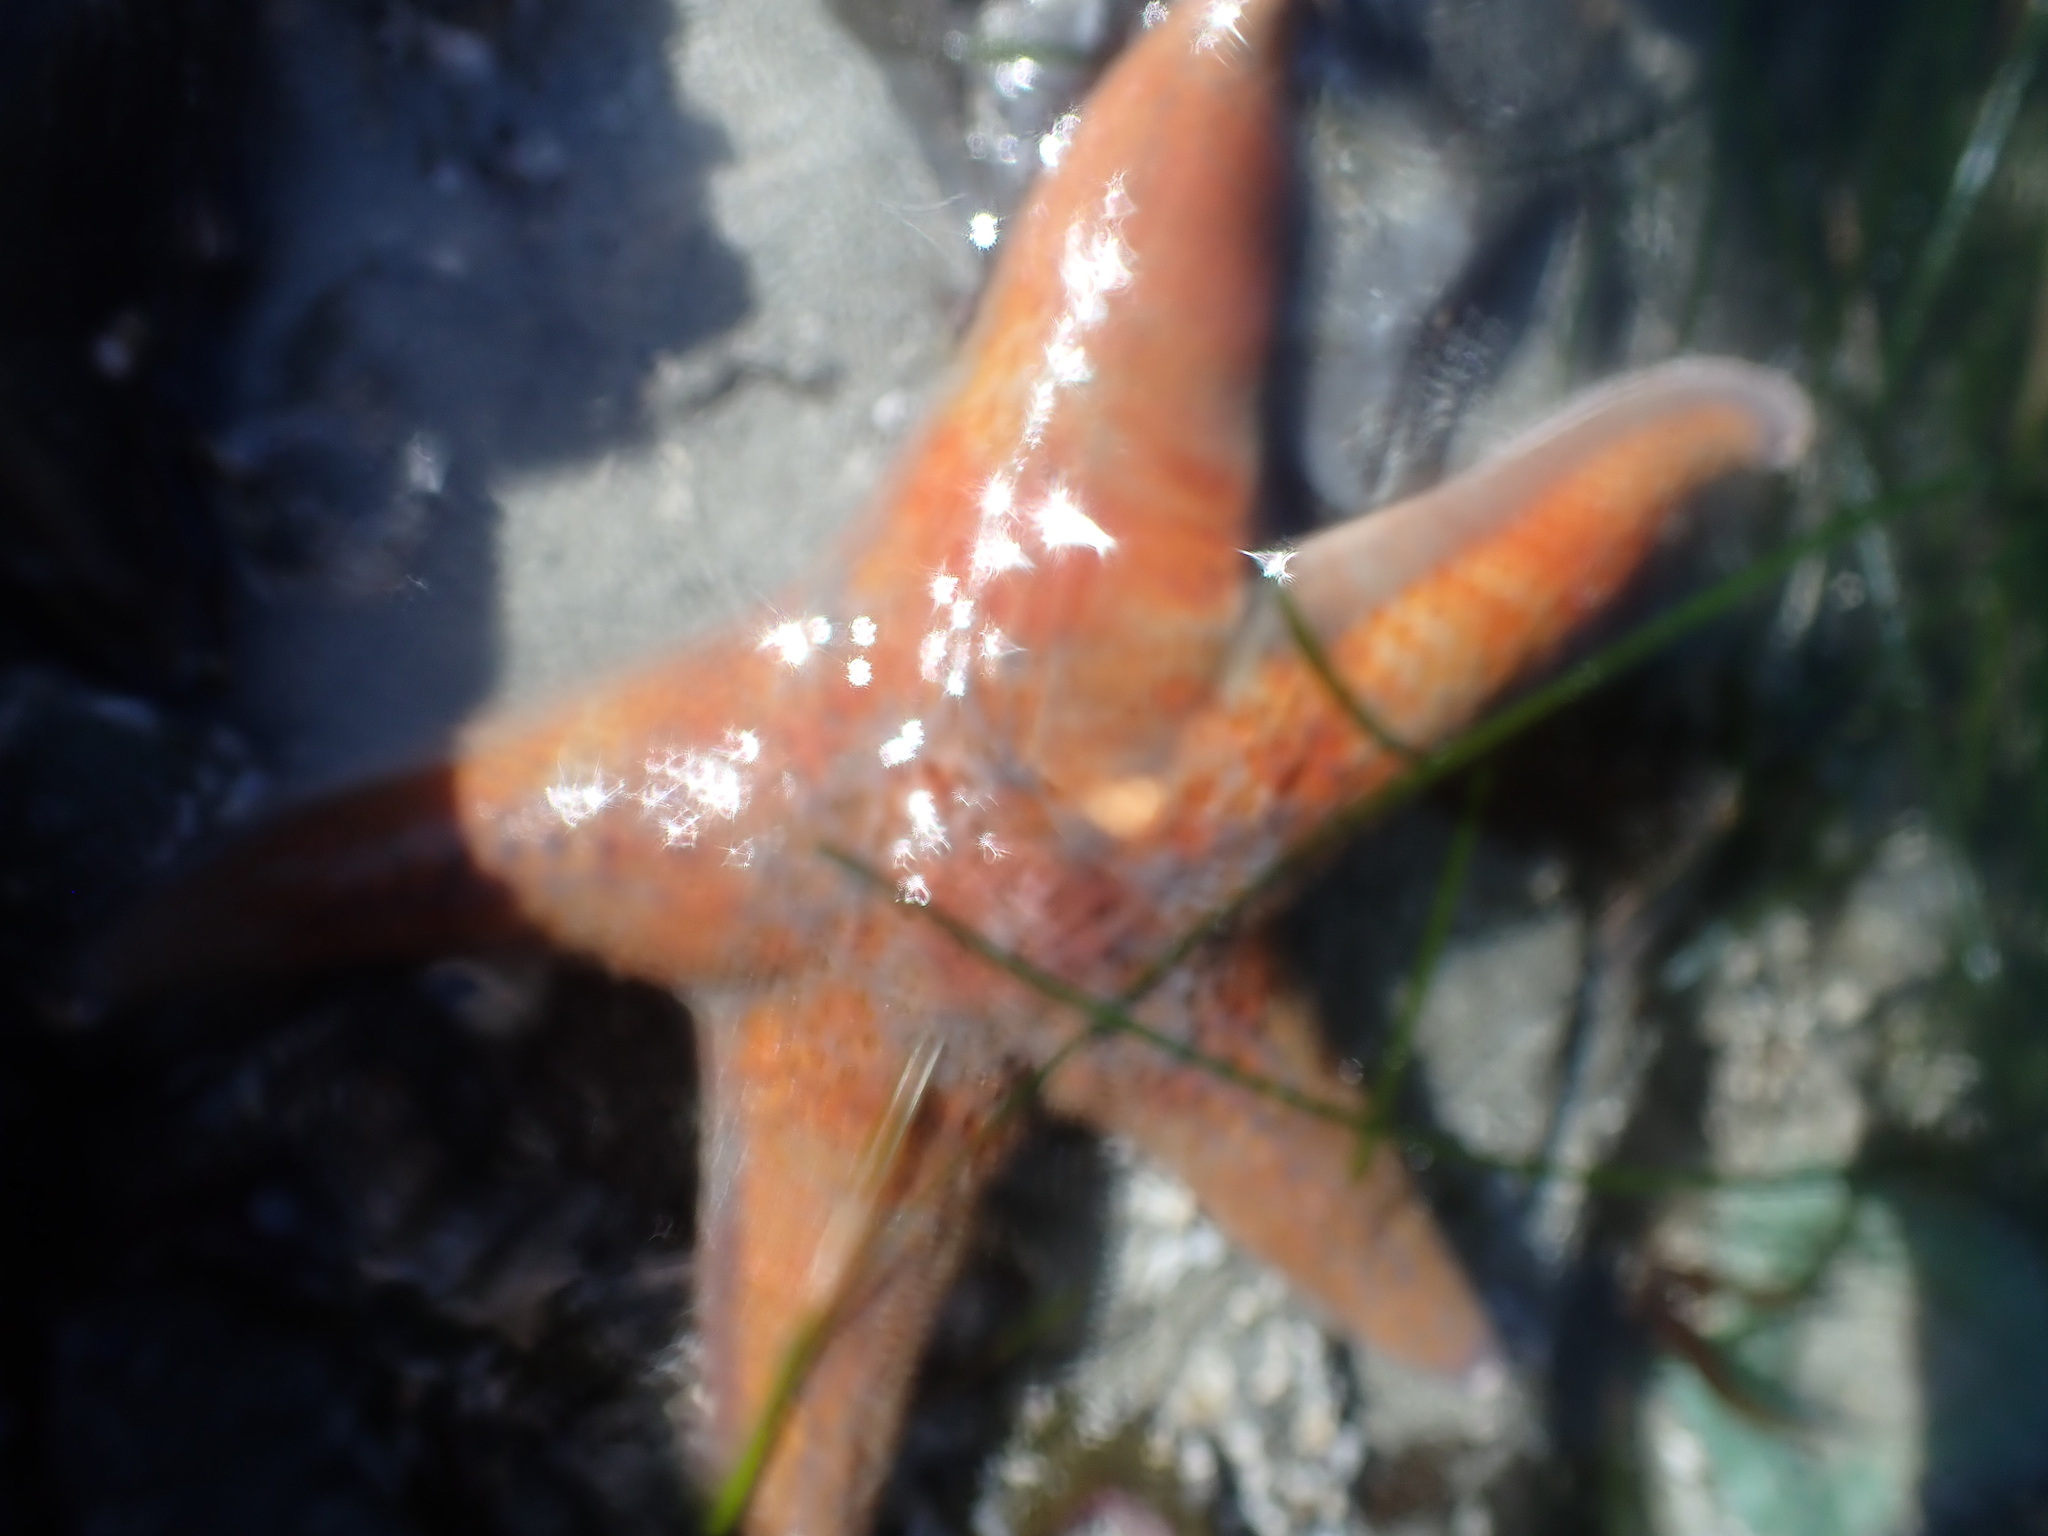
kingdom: Animalia
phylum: Echinodermata
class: Asteroidea
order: Valvatida
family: Asteropseidae
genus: Dermasterias
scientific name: Dermasterias imbricata
